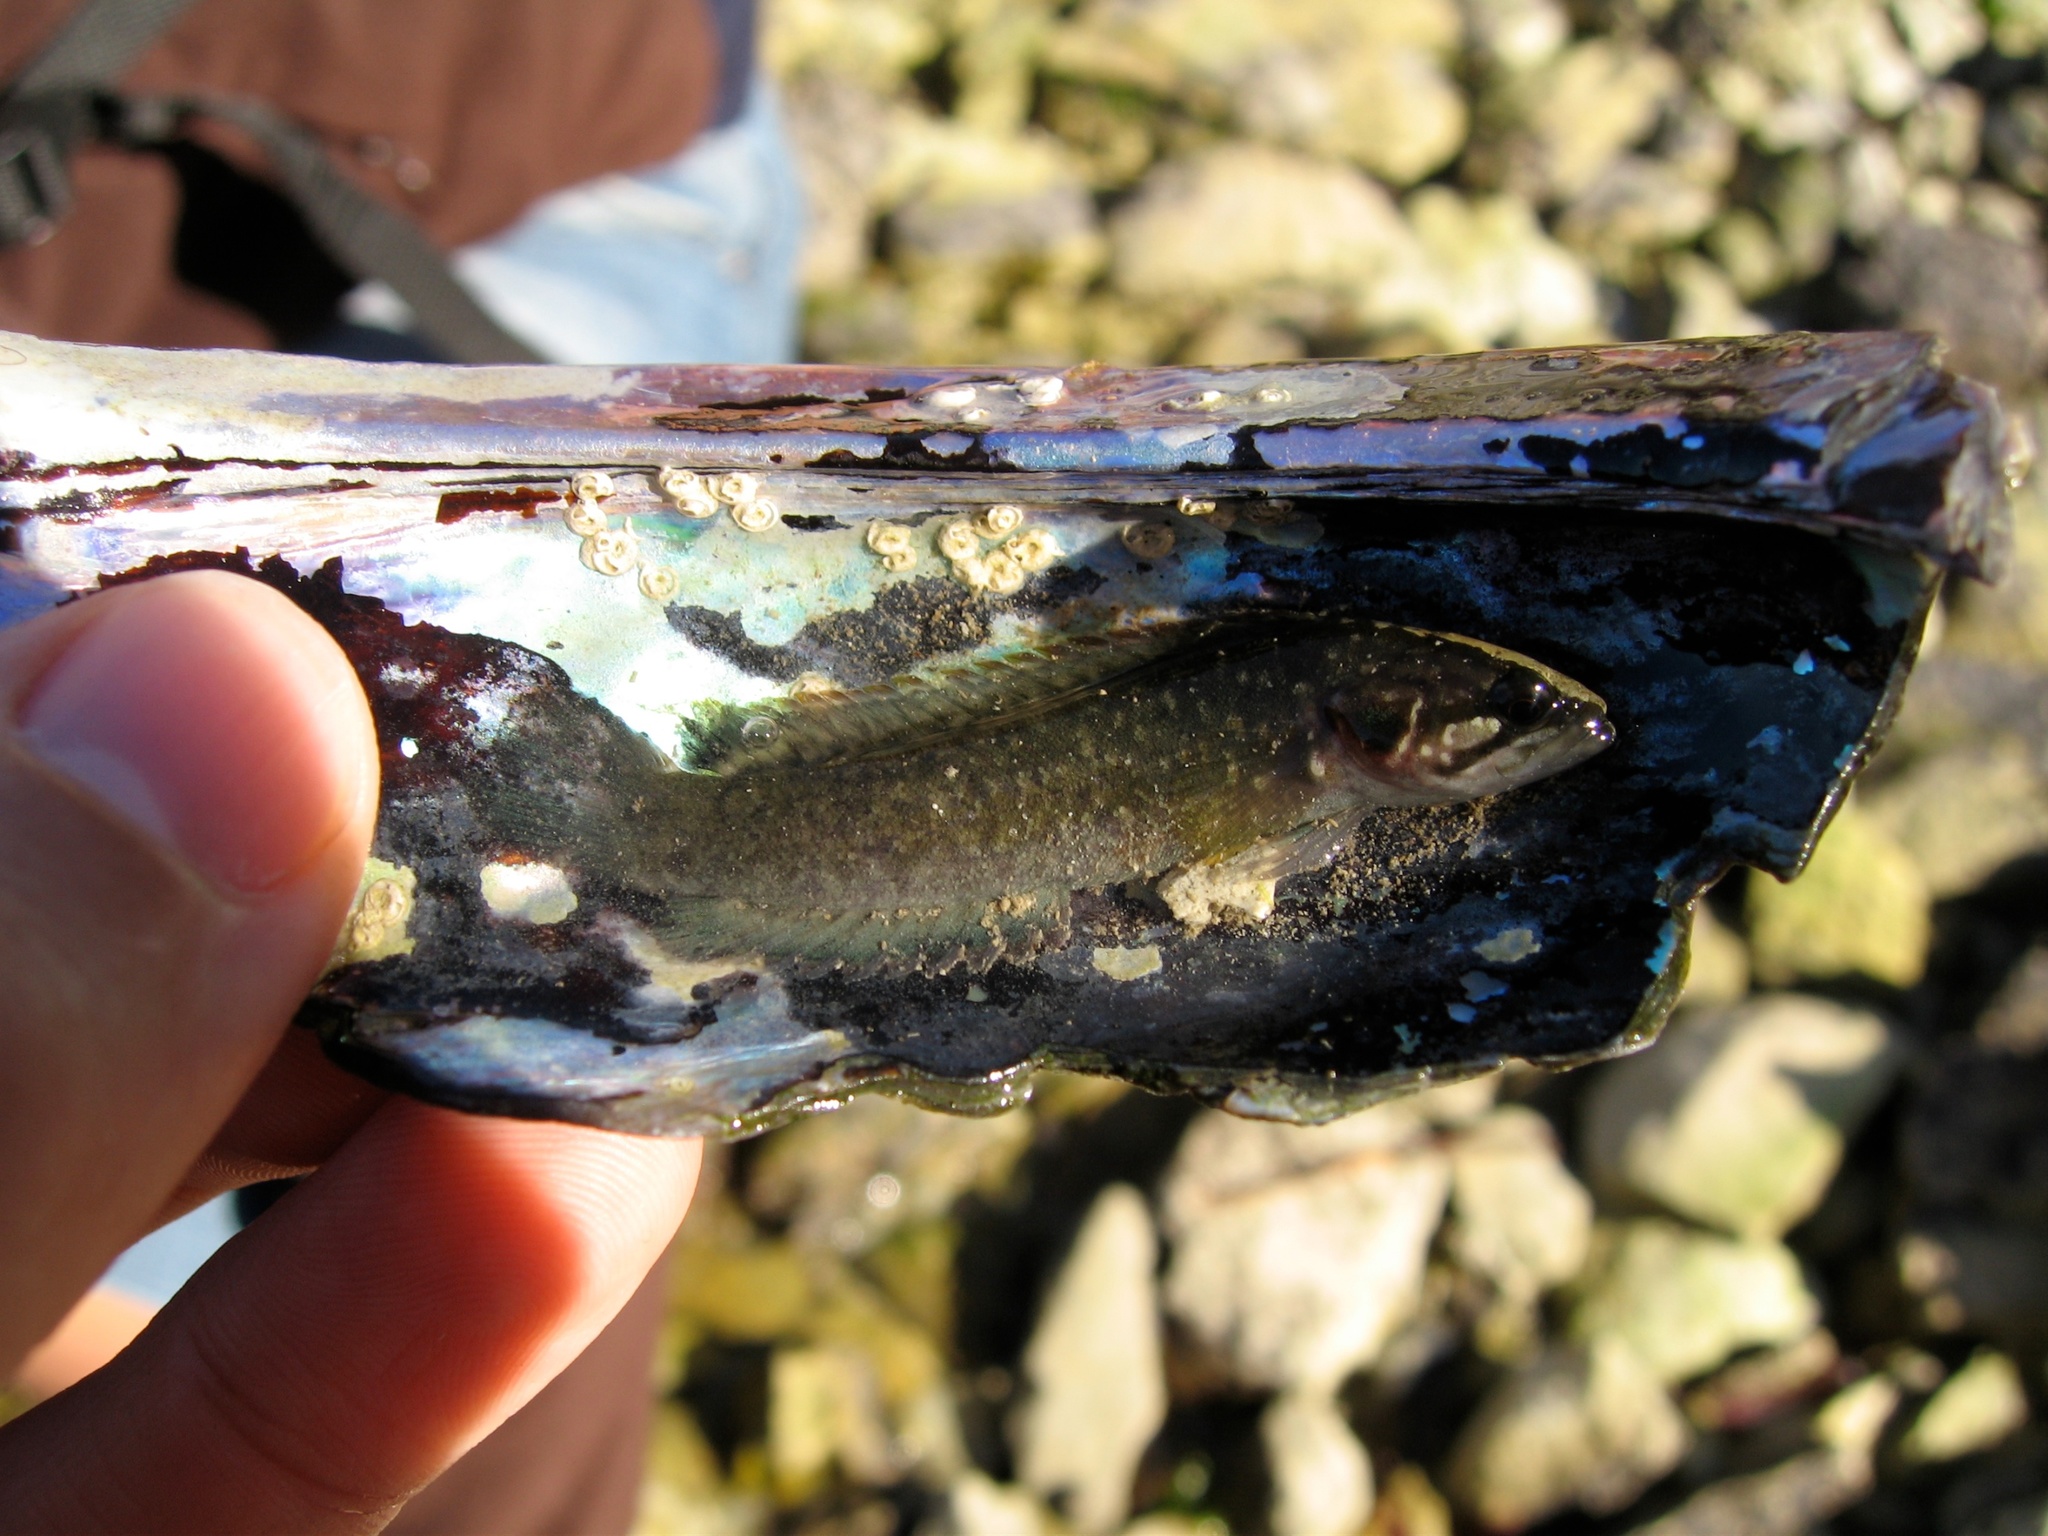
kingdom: Animalia
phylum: Chordata
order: Perciformes
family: Plesiopidae
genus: Acanthoclinus
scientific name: Acanthoclinus fuscus
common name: Olive rockfish
